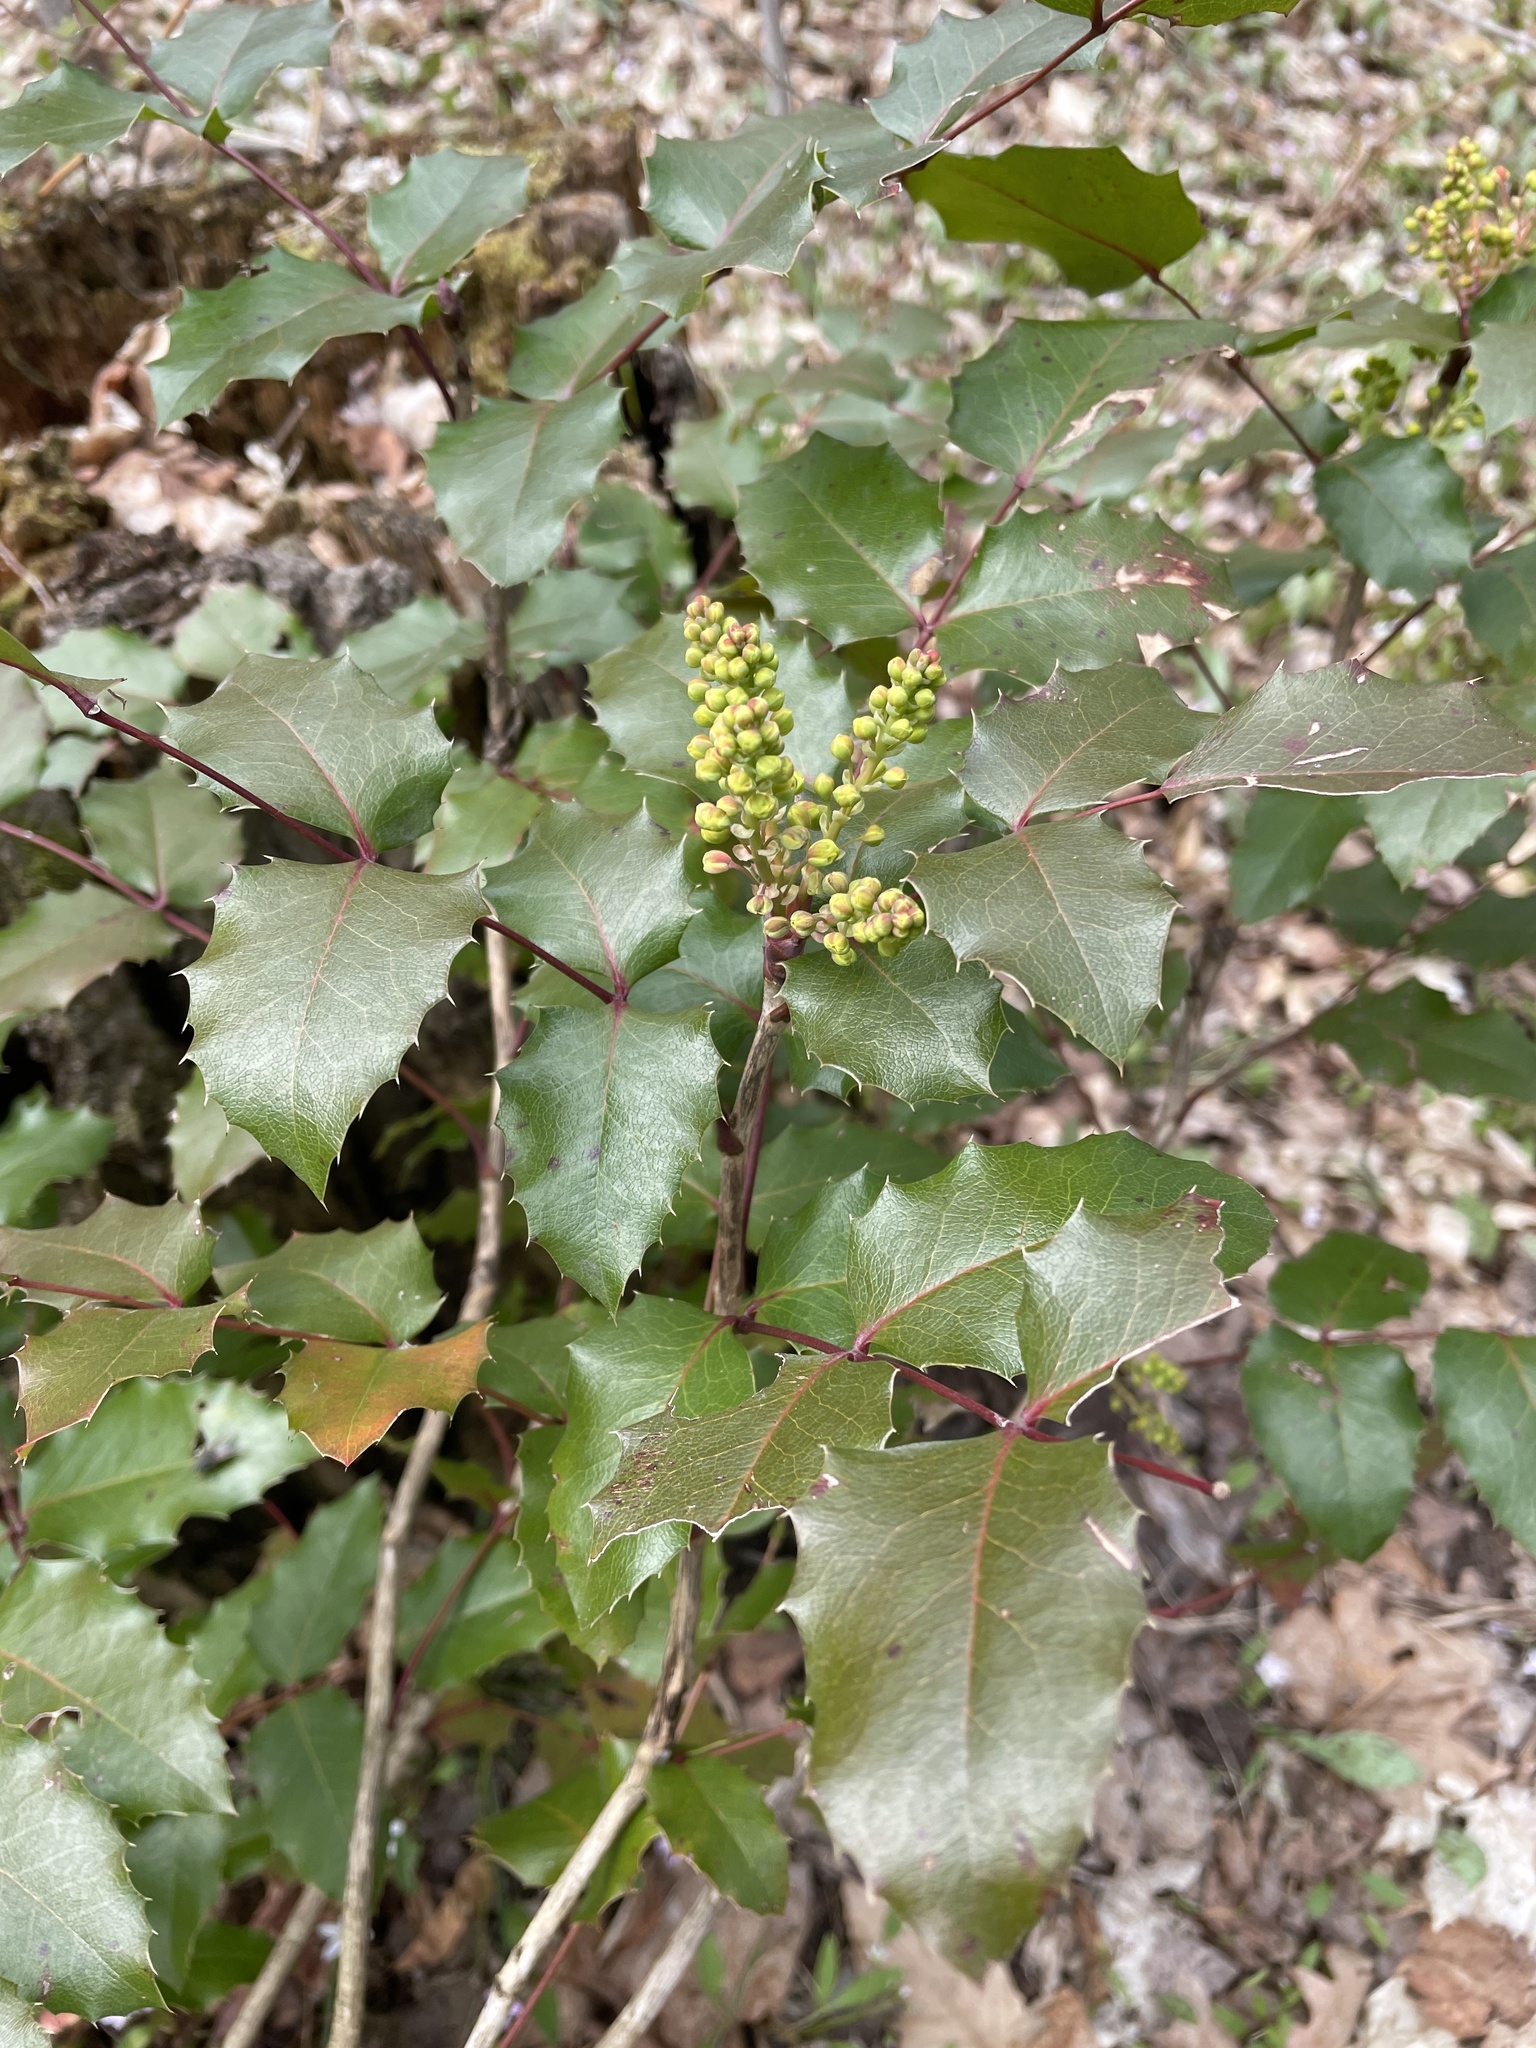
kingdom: Plantae
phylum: Tracheophyta
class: Magnoliopsida
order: Ranunculales
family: Berberidaceae
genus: Mahonia
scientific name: Mahonia aquifolium
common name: Oregon-grape
